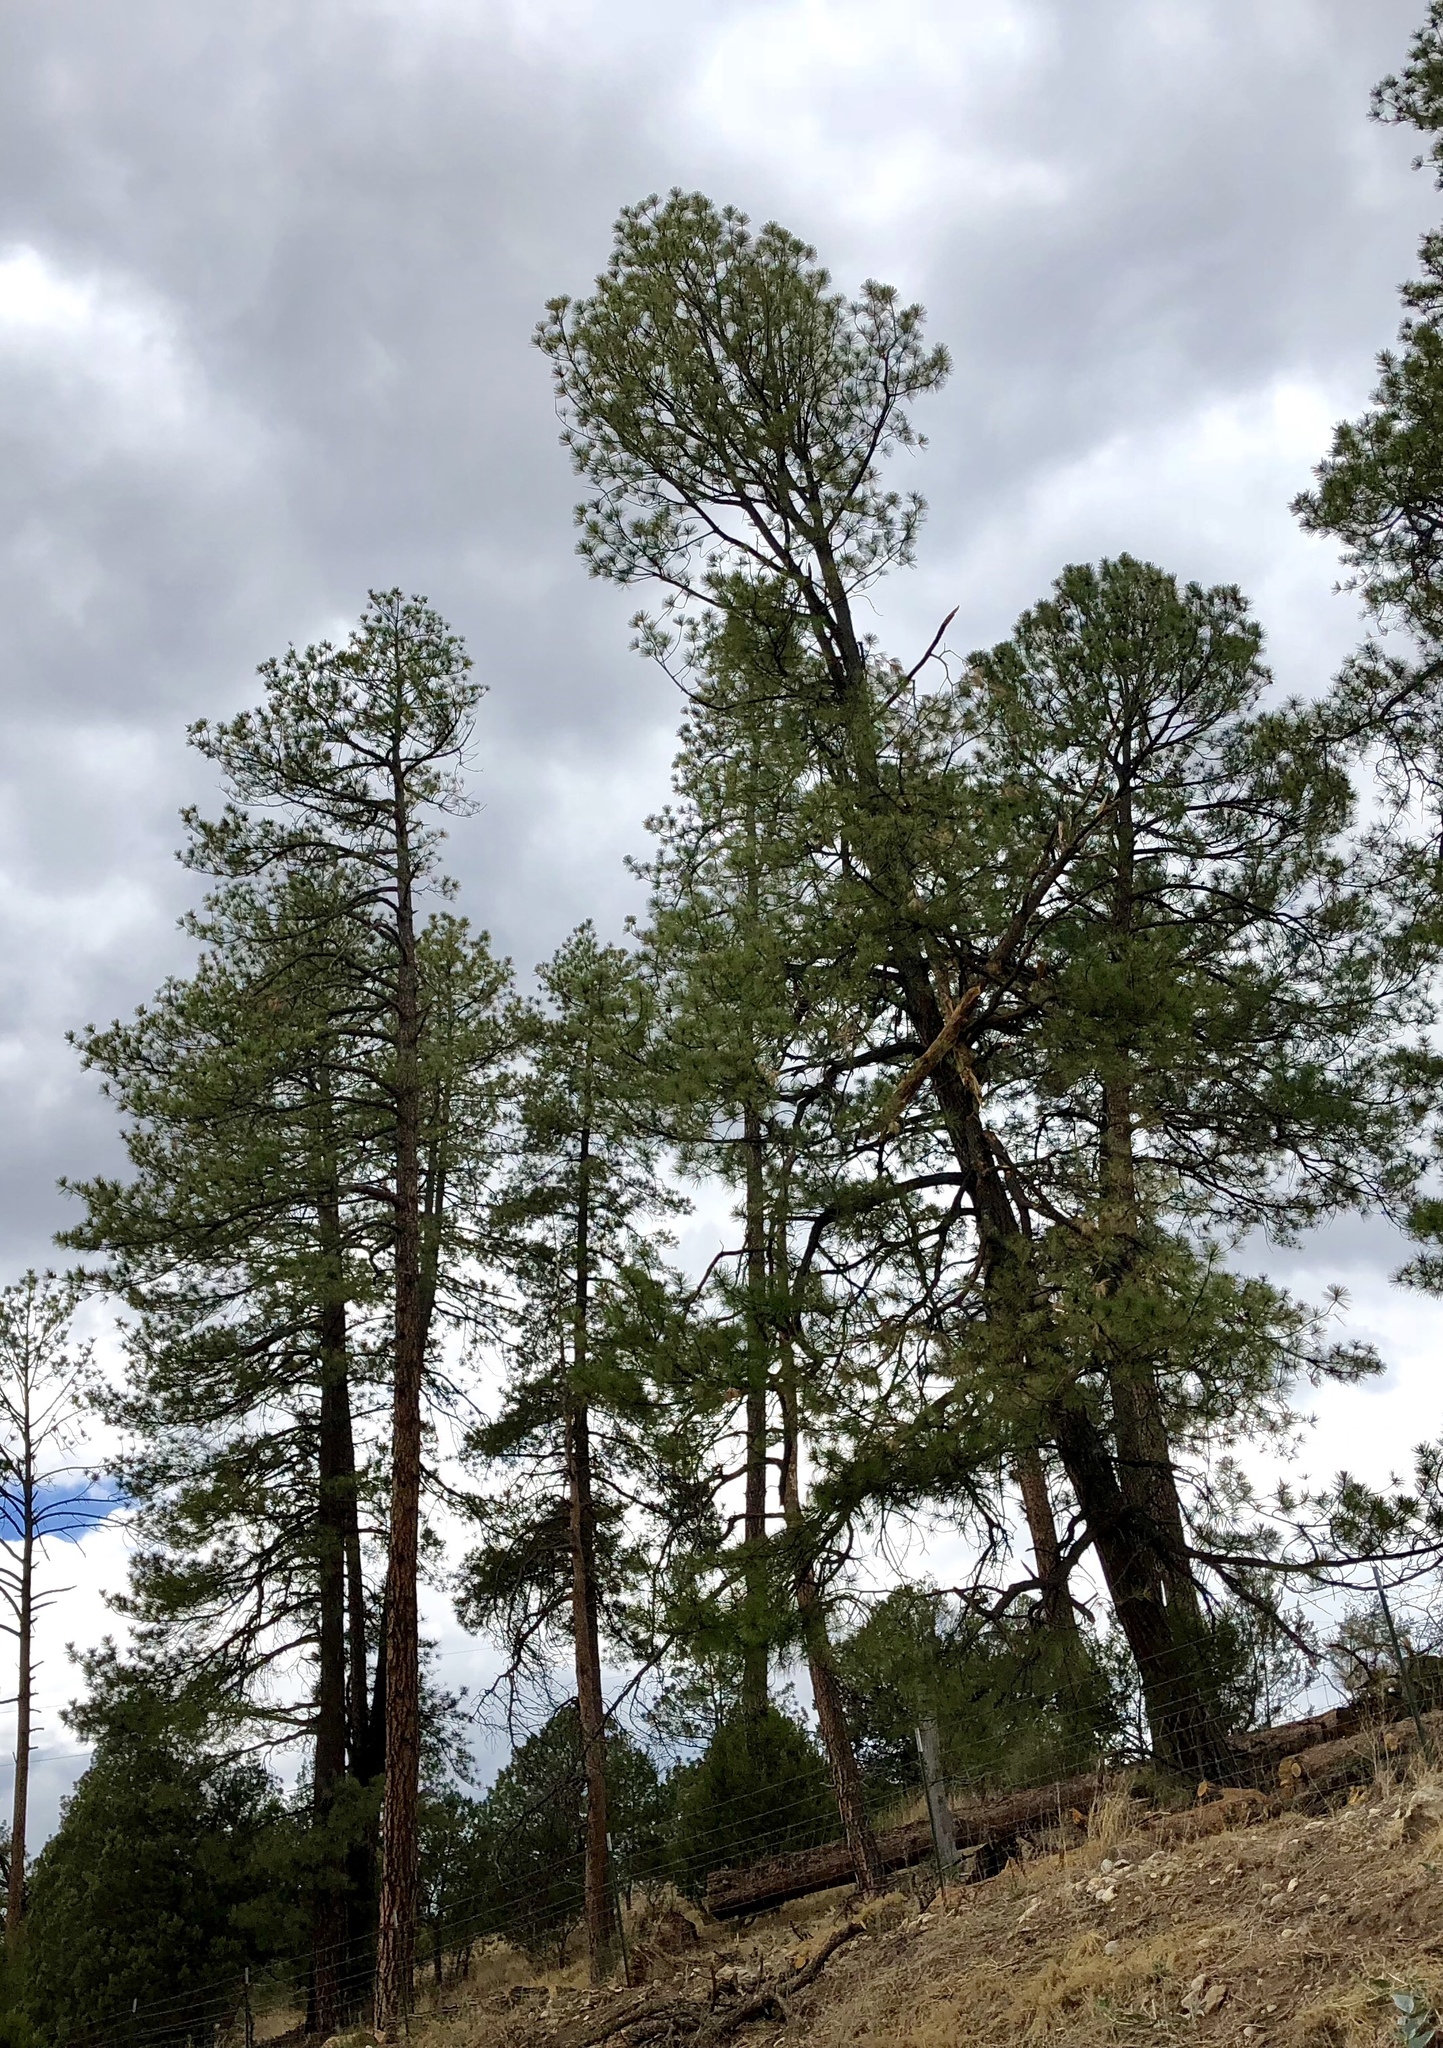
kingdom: Plantae
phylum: Tracheophyta
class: Pinopsida
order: Pinales
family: Pinaceae
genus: Pinus
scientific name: Pinus ponderosa
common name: Western yellow-pine
